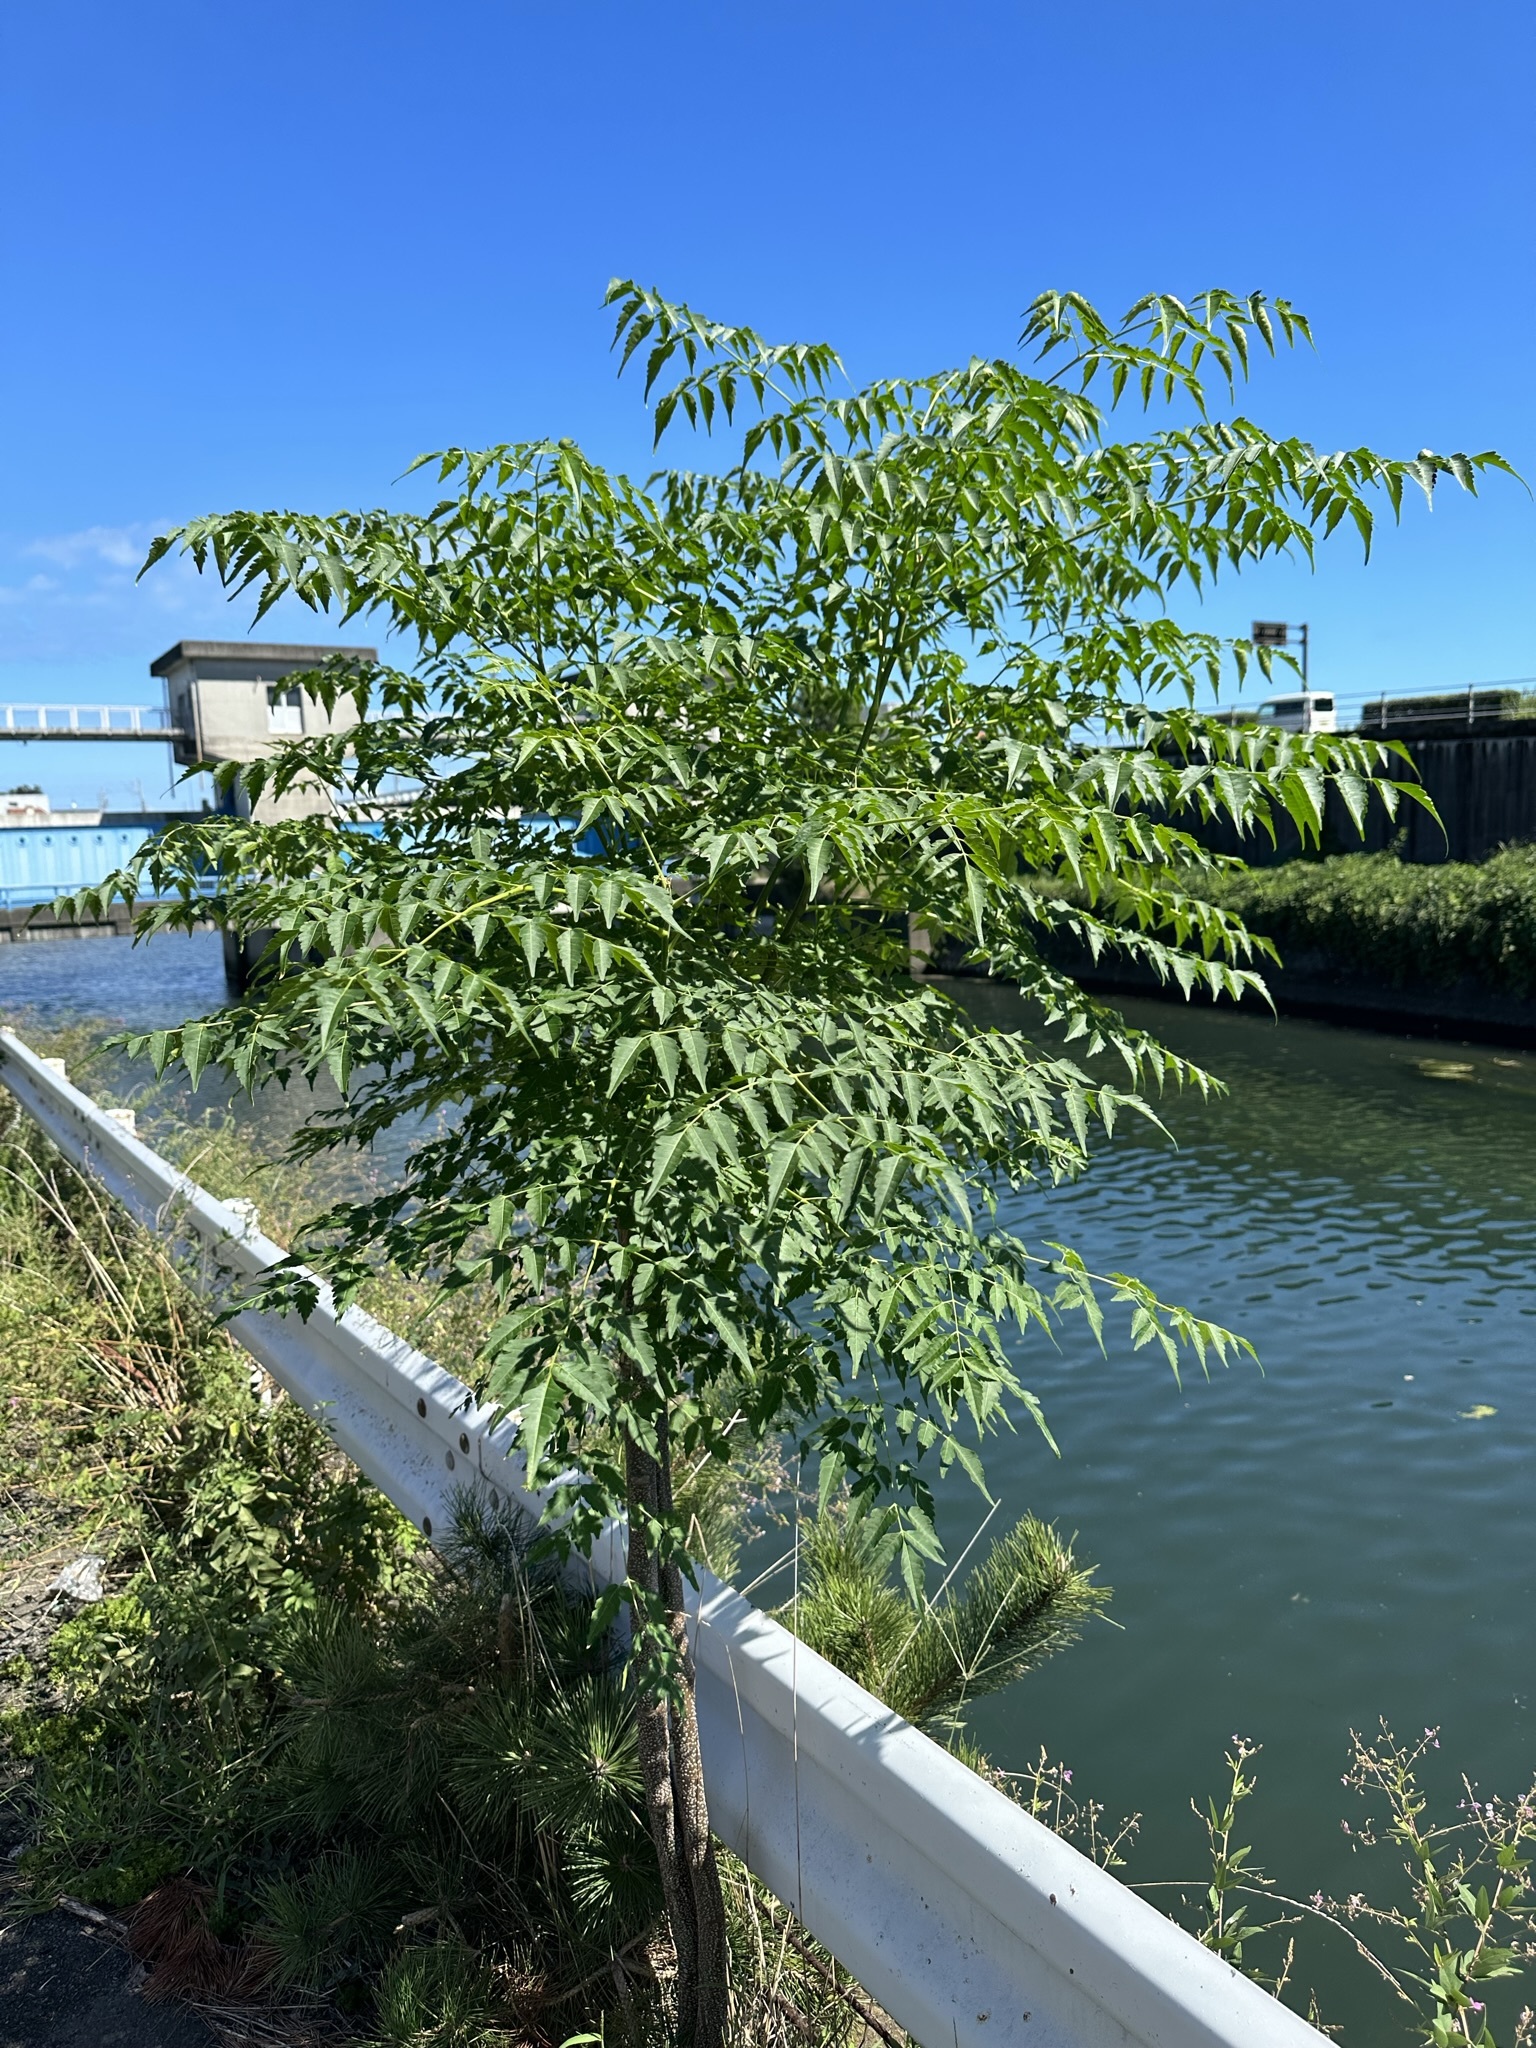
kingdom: Plantae
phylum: Tracheophyta
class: Magnoliopsida
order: Sapindales
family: Meliaceae
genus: Melia
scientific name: Melia azedarach
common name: Chinaberrytree
